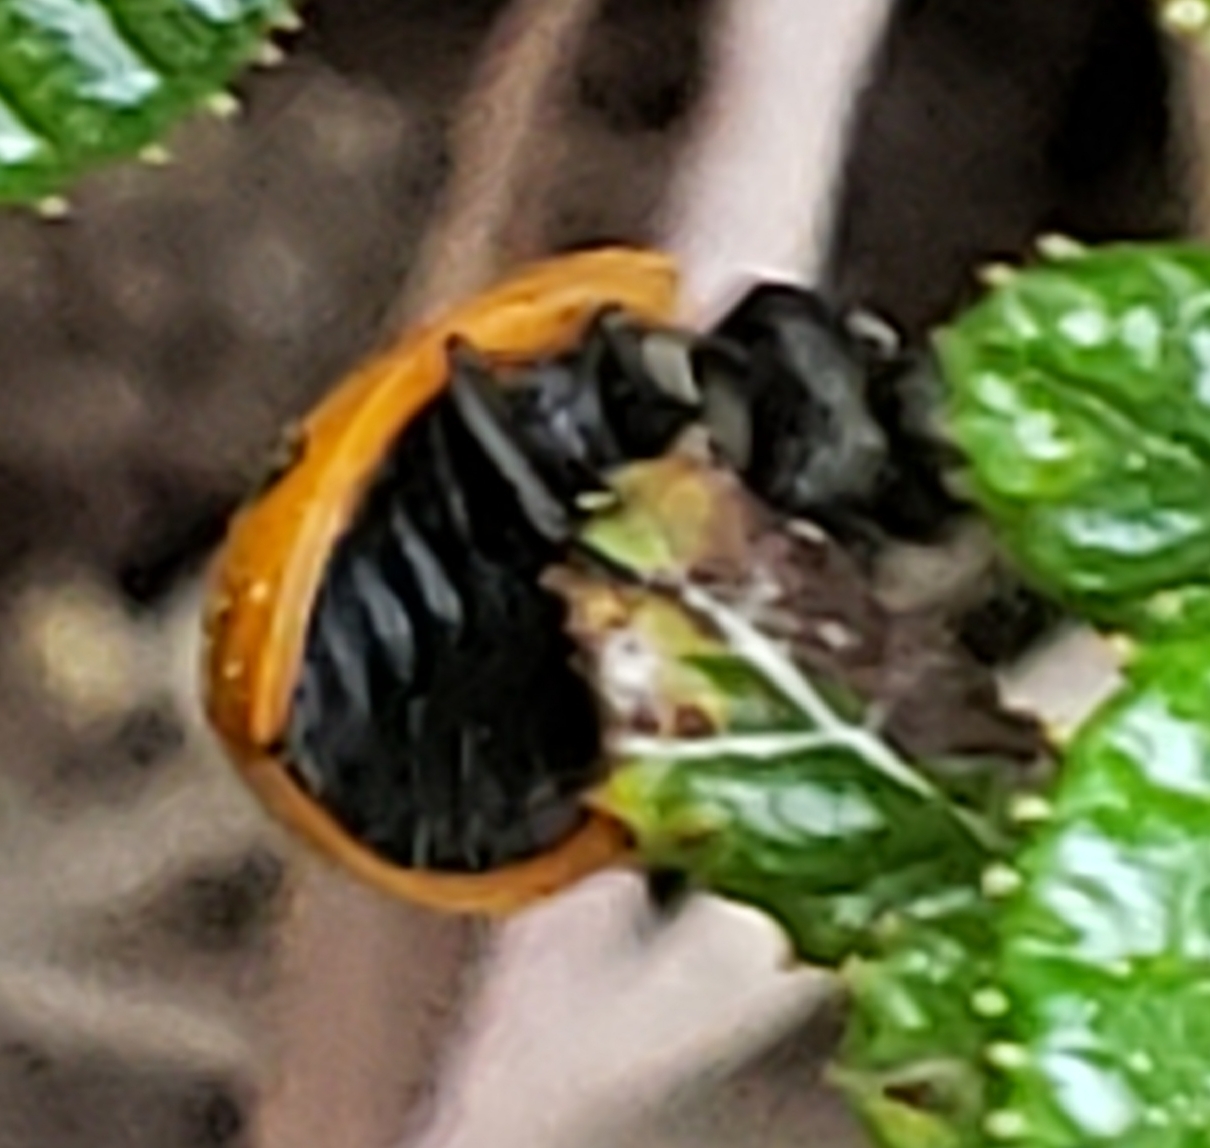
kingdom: Animalia
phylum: Arthropoda
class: Insecta
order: Coleoptera
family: Coccinellidae
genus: Coccinella
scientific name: Coccinella septempunctata
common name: Sevenspotted lady beetle
